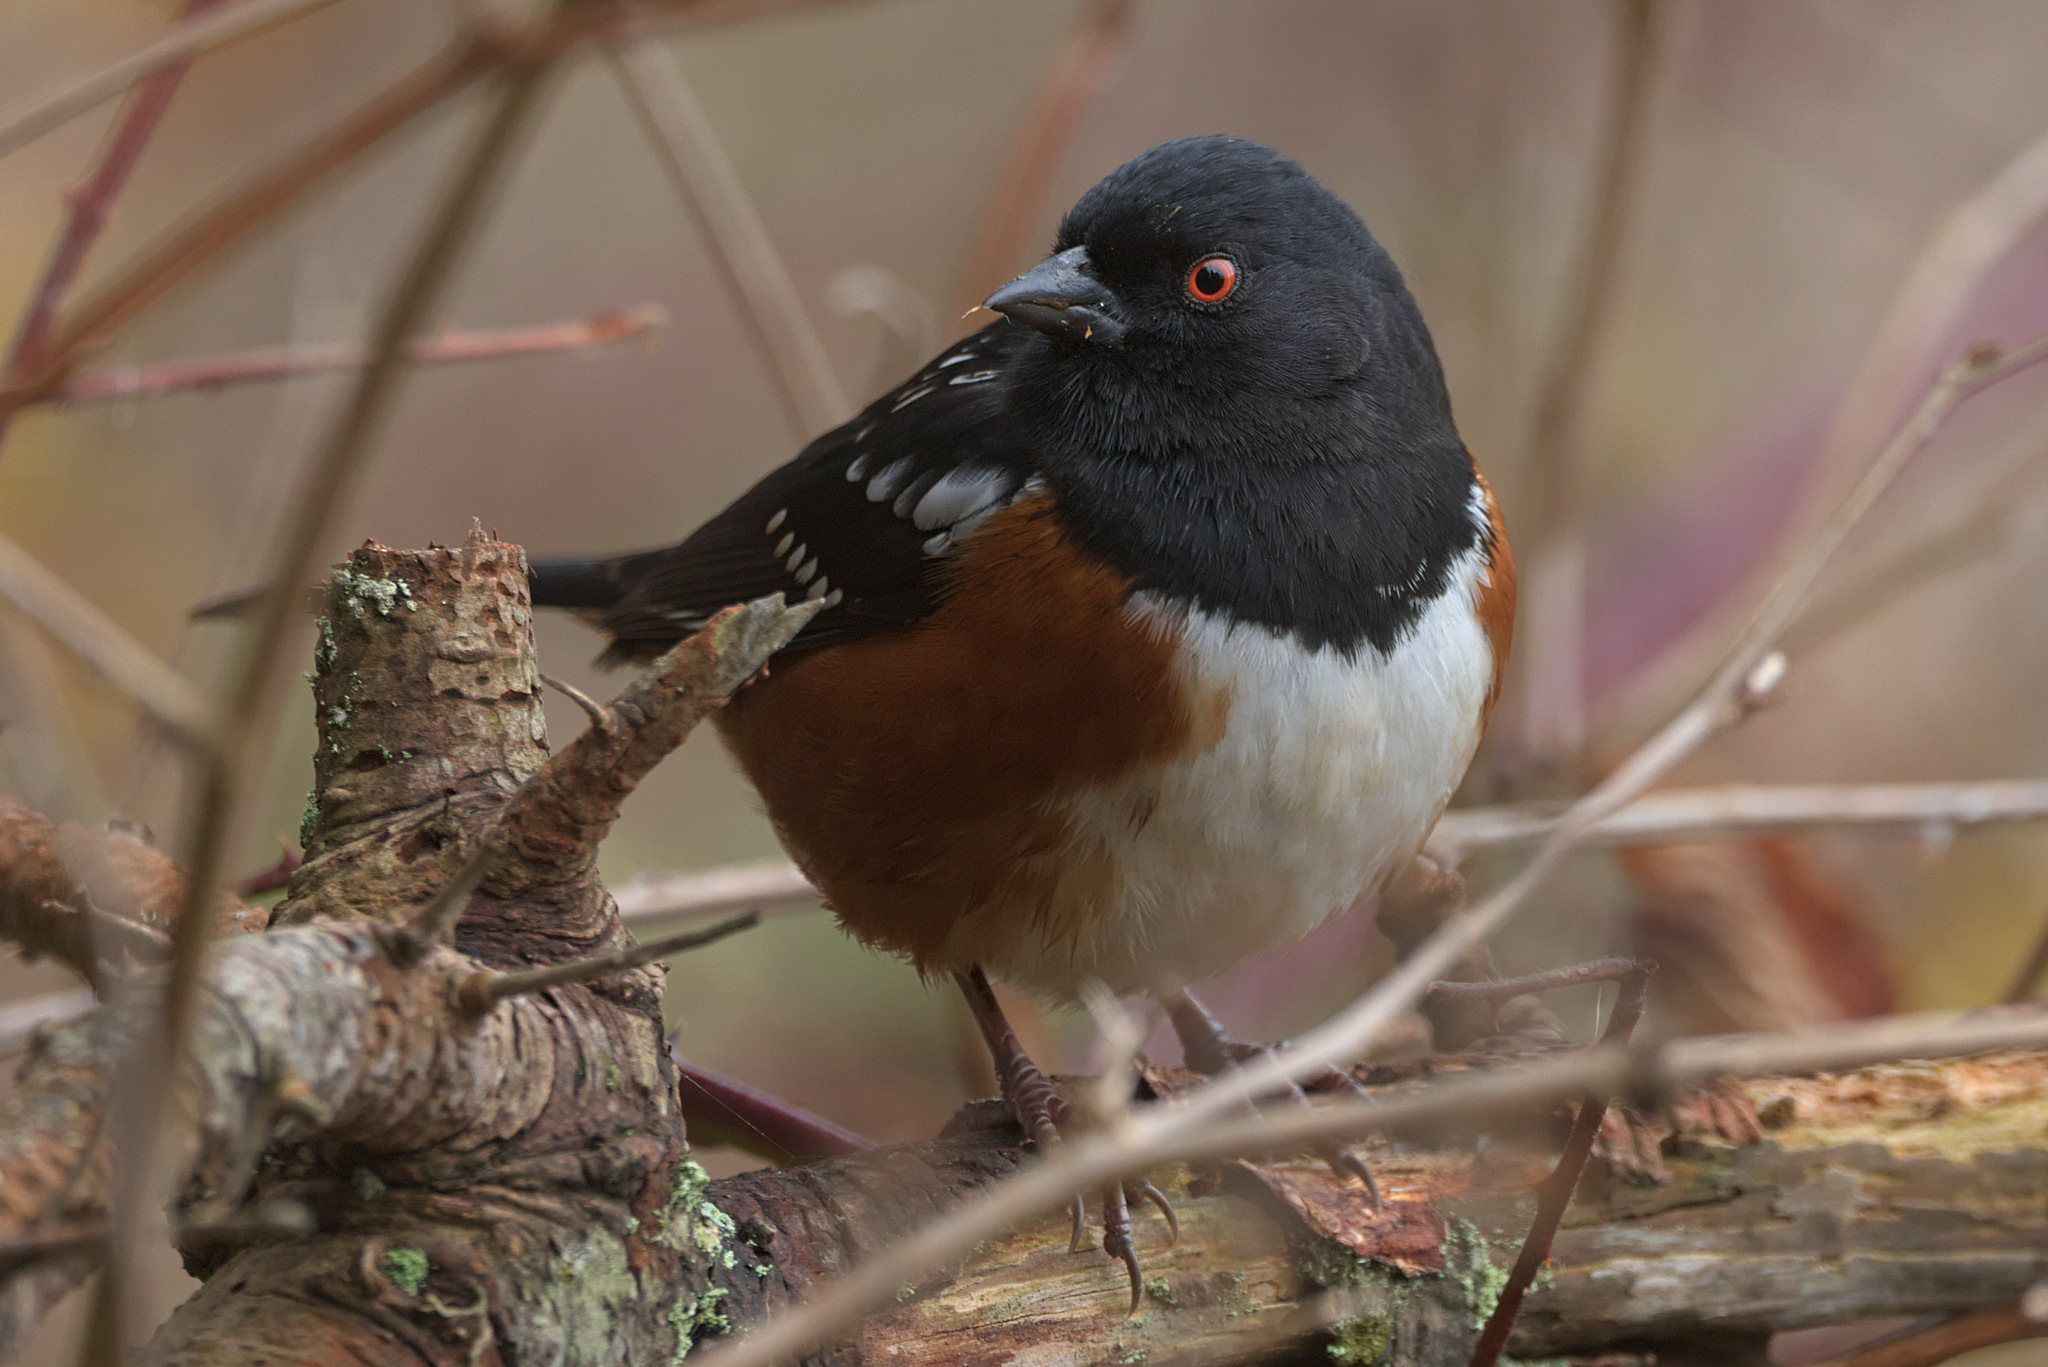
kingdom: Animalia
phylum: Chordata
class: Aves
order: Passeriformes
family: Passerellidae
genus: Pipilo
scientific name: Pipilo maculatus
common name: Spotted towhee
